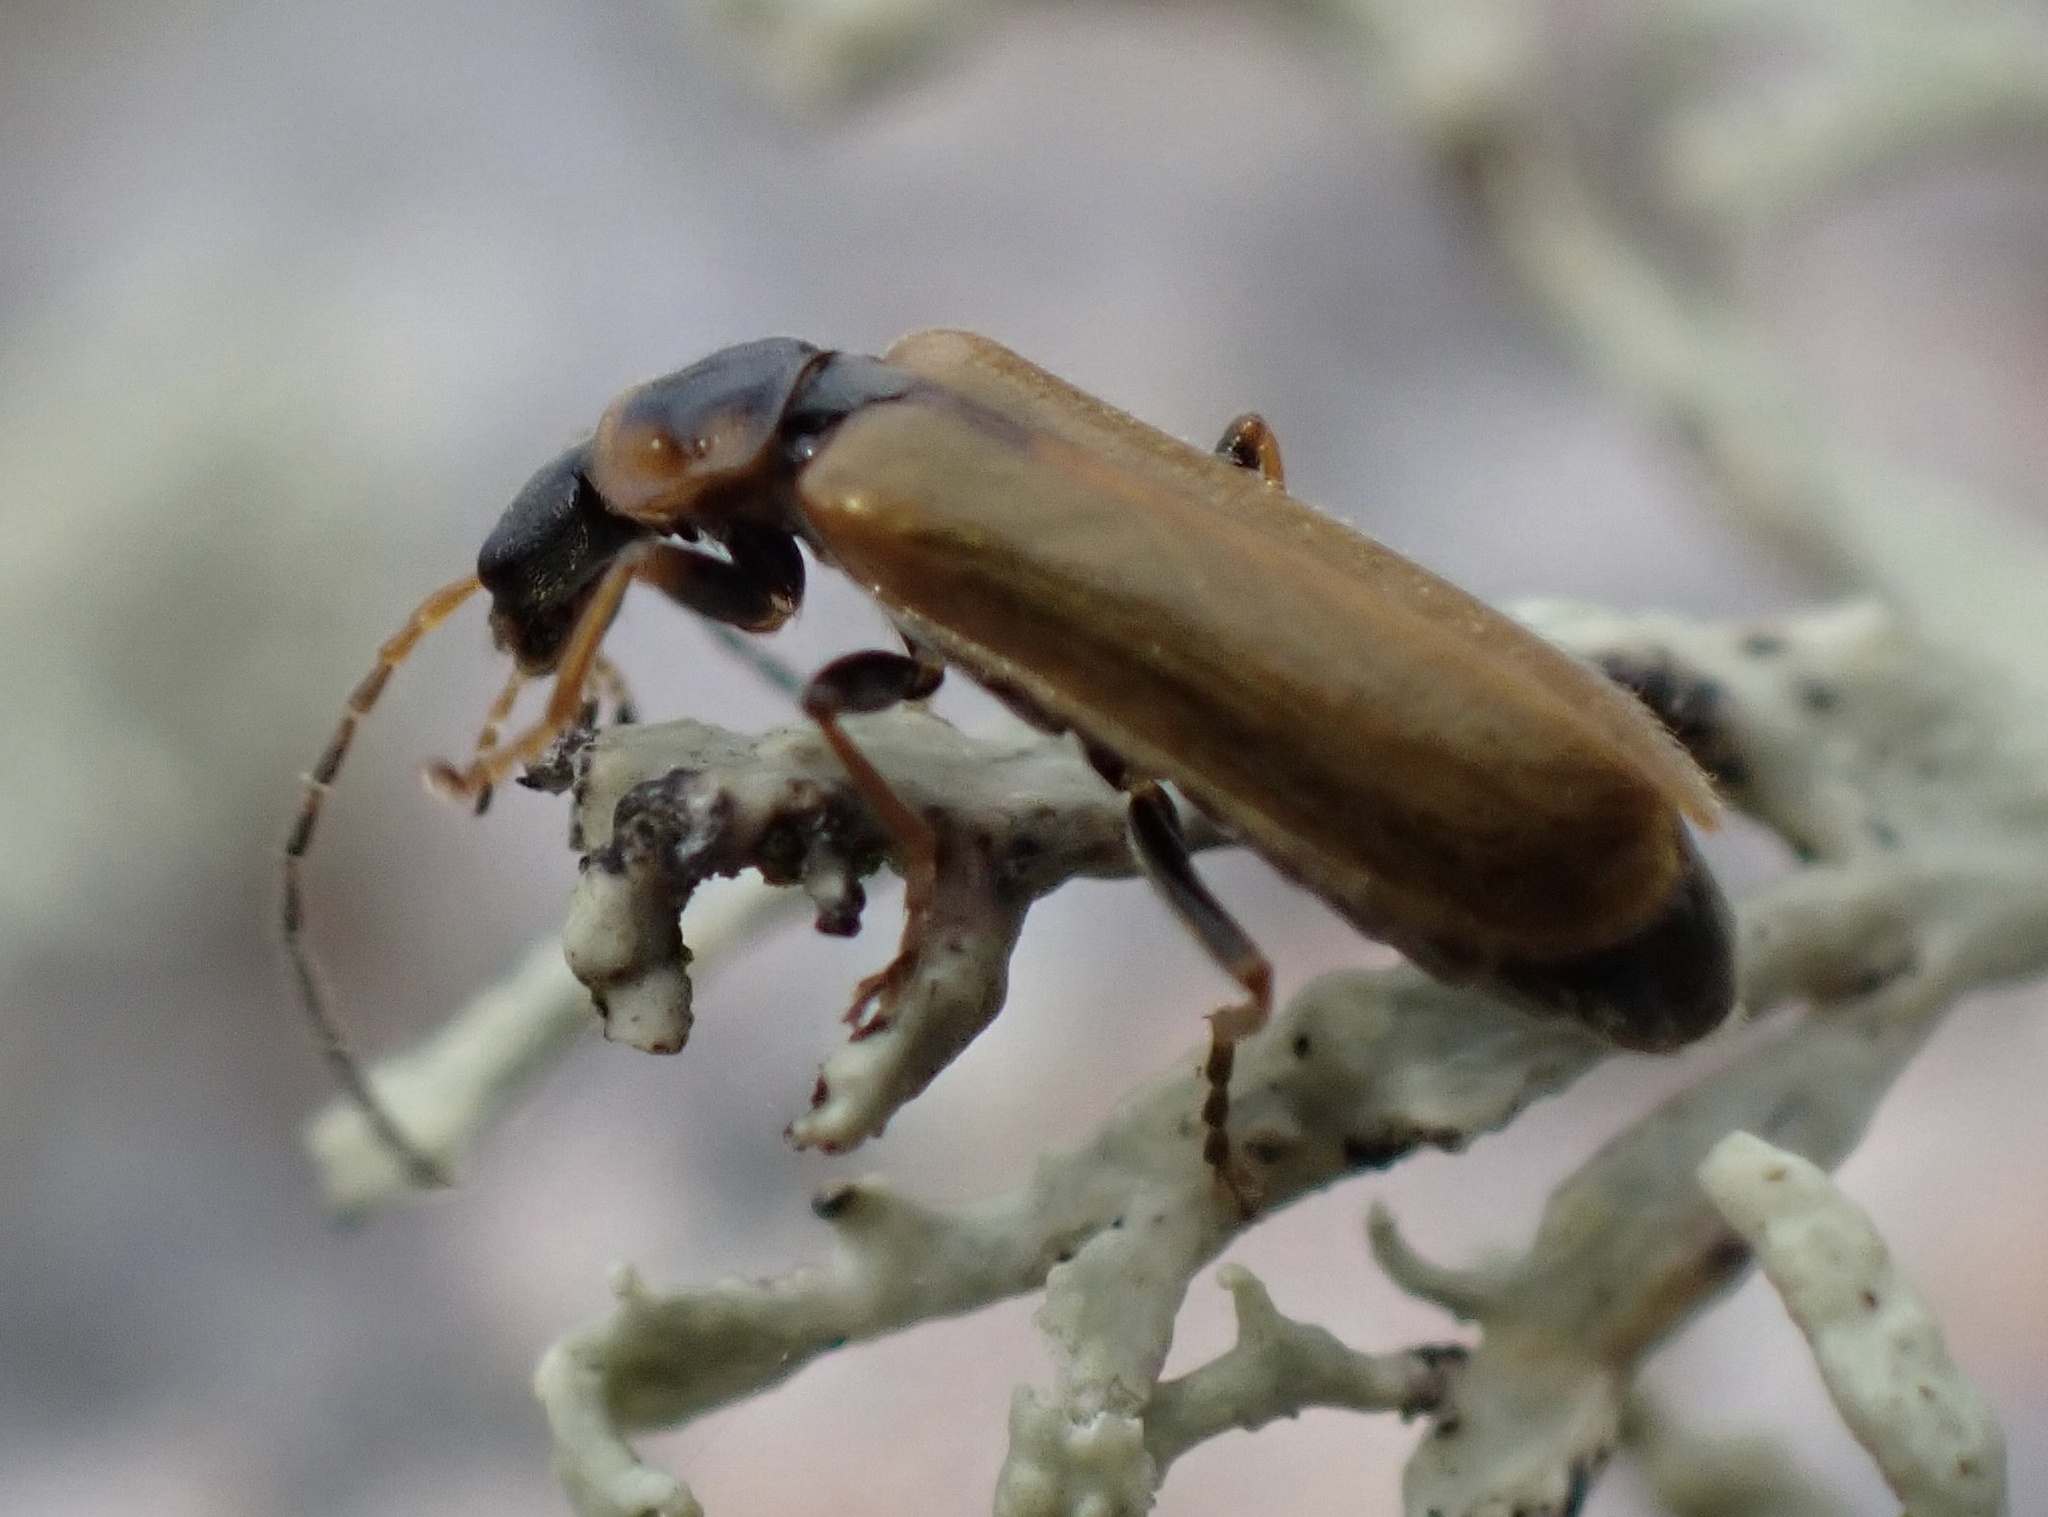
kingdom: Animalia
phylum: Arthropoda
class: Insecta
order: Coleoptera
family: Cantharidae
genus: Rhagonycha
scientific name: Rhagonycha nigriventris
